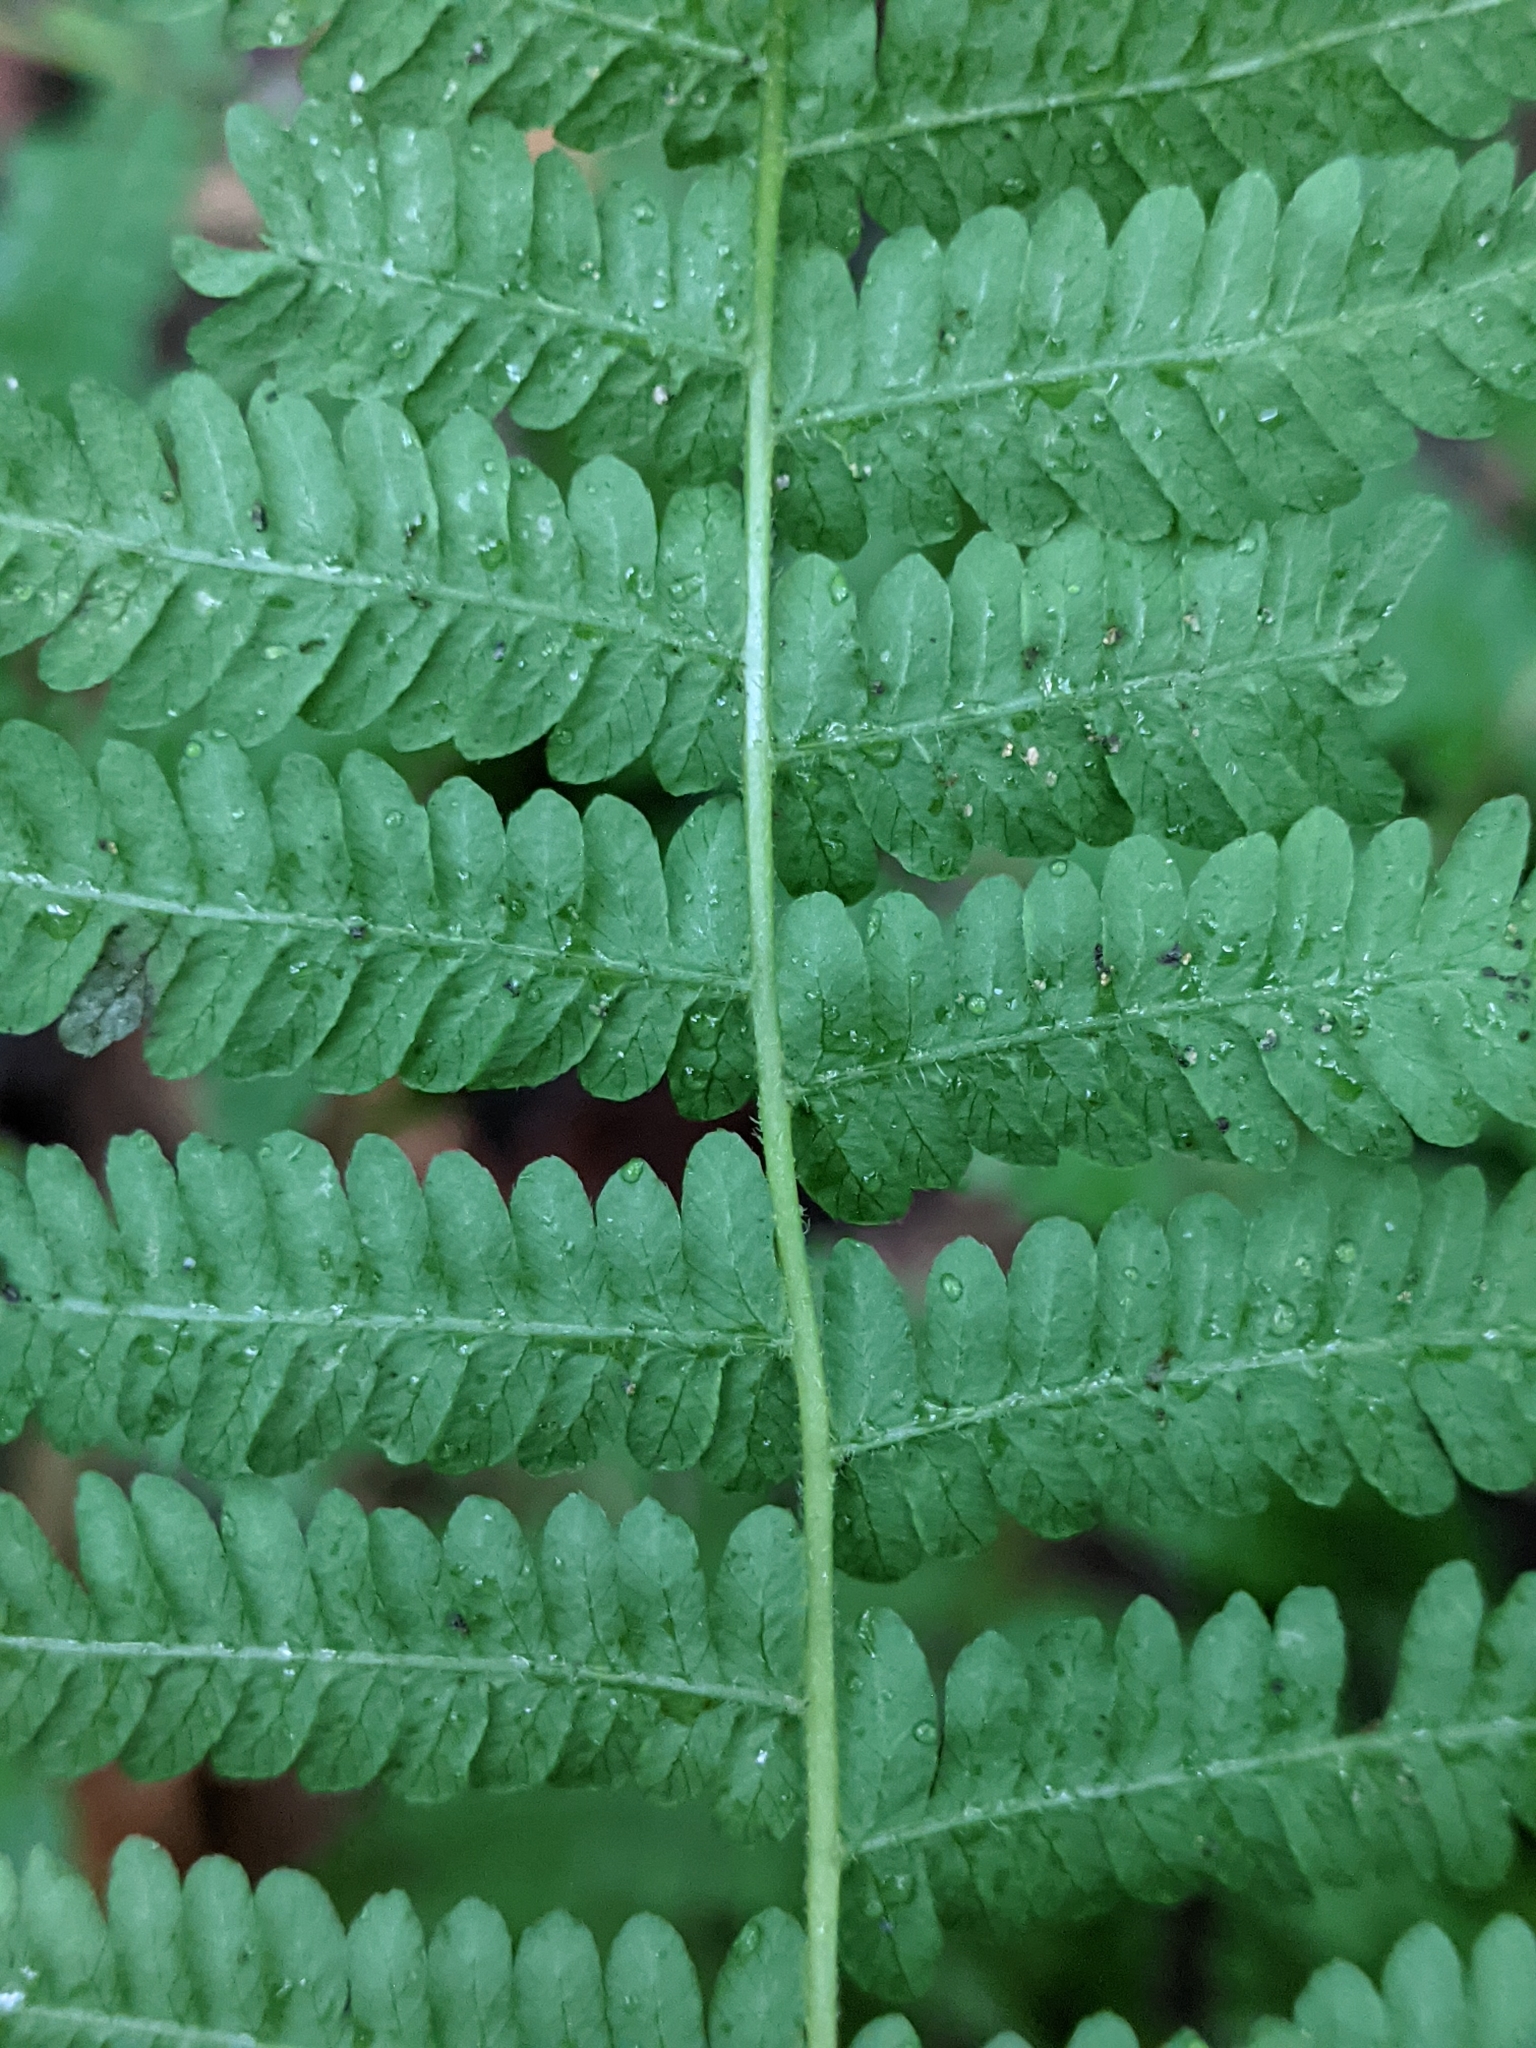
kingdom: Plantae
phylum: Tracheophyta
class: Polypodiopsida
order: Polypodiales
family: Thelypteridaceae
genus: Amauropelta
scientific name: Amauropelta noveboracensis
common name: New york fern
